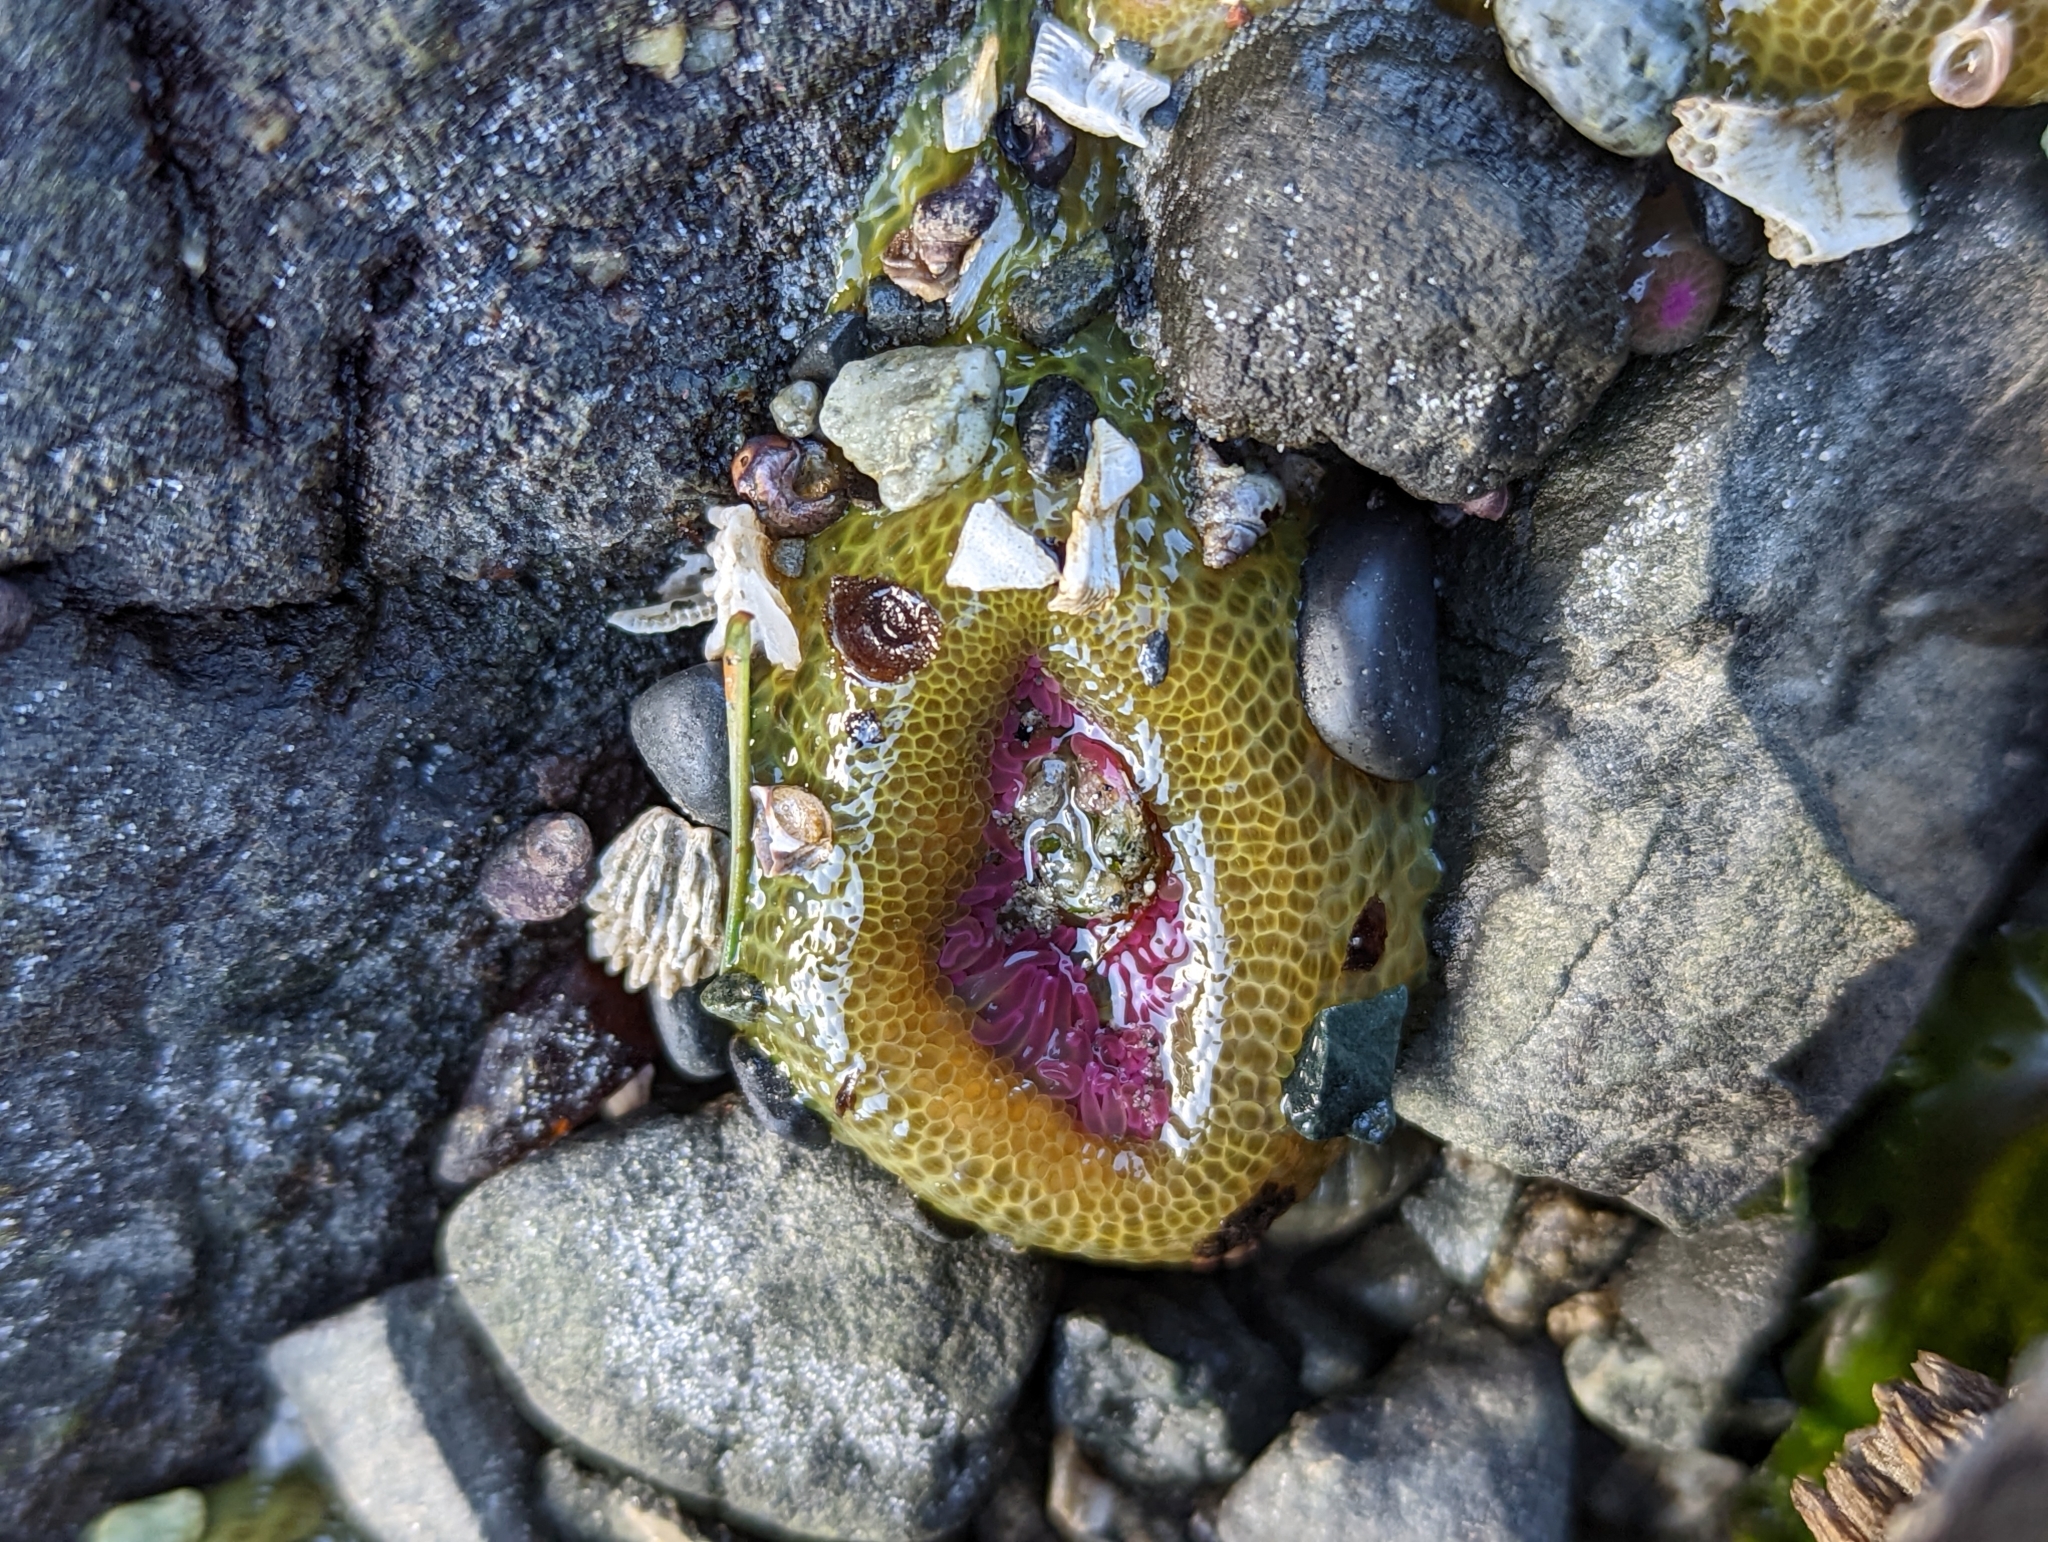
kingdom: Animalia
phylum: Cnidaria
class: Anthozoa
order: Actiniaria
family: Actiniidae
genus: Anthopleura
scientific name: Anthopleura elegantissima
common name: Clonal anemone
